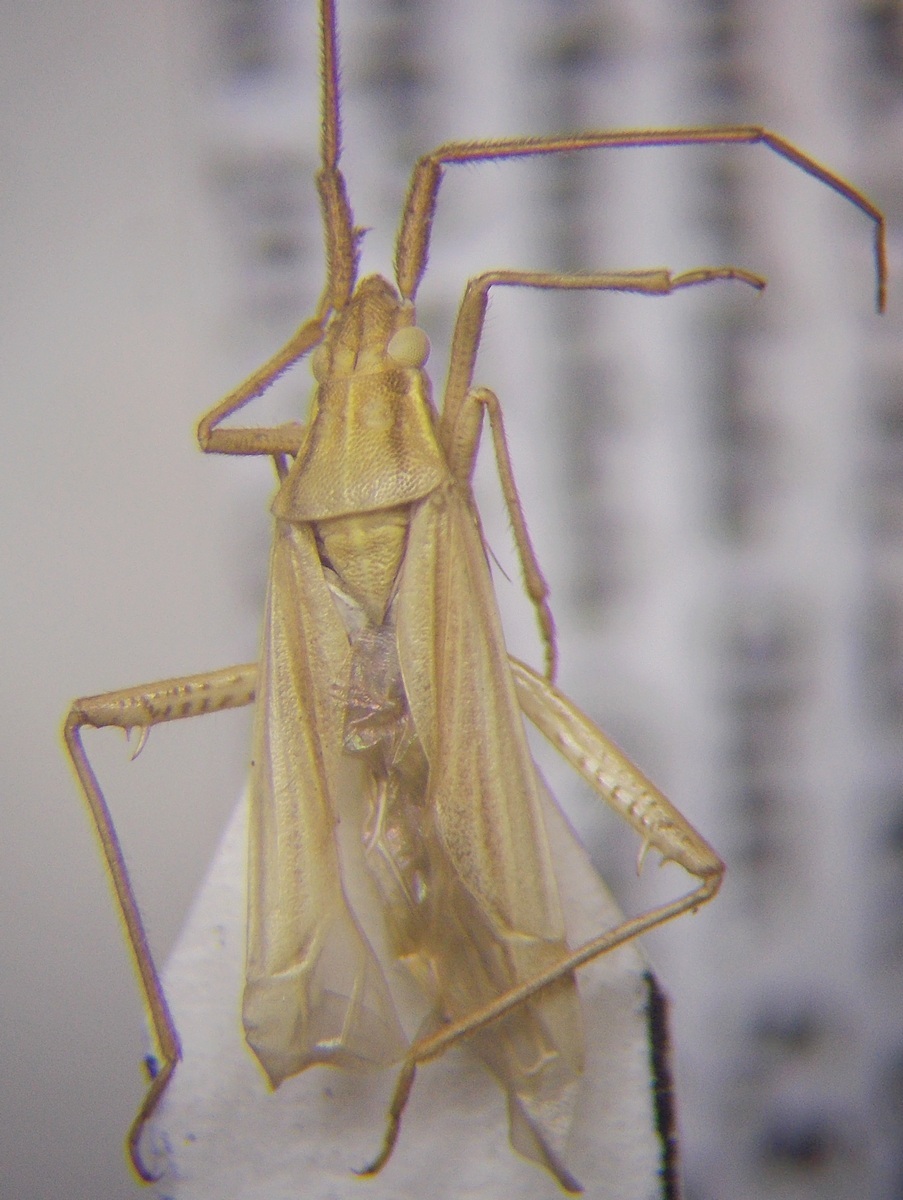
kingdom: Animalia
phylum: Arthropoda
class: Insecta
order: Hemiptera
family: Miridae
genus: Stenodema
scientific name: Stenodema calcarata
